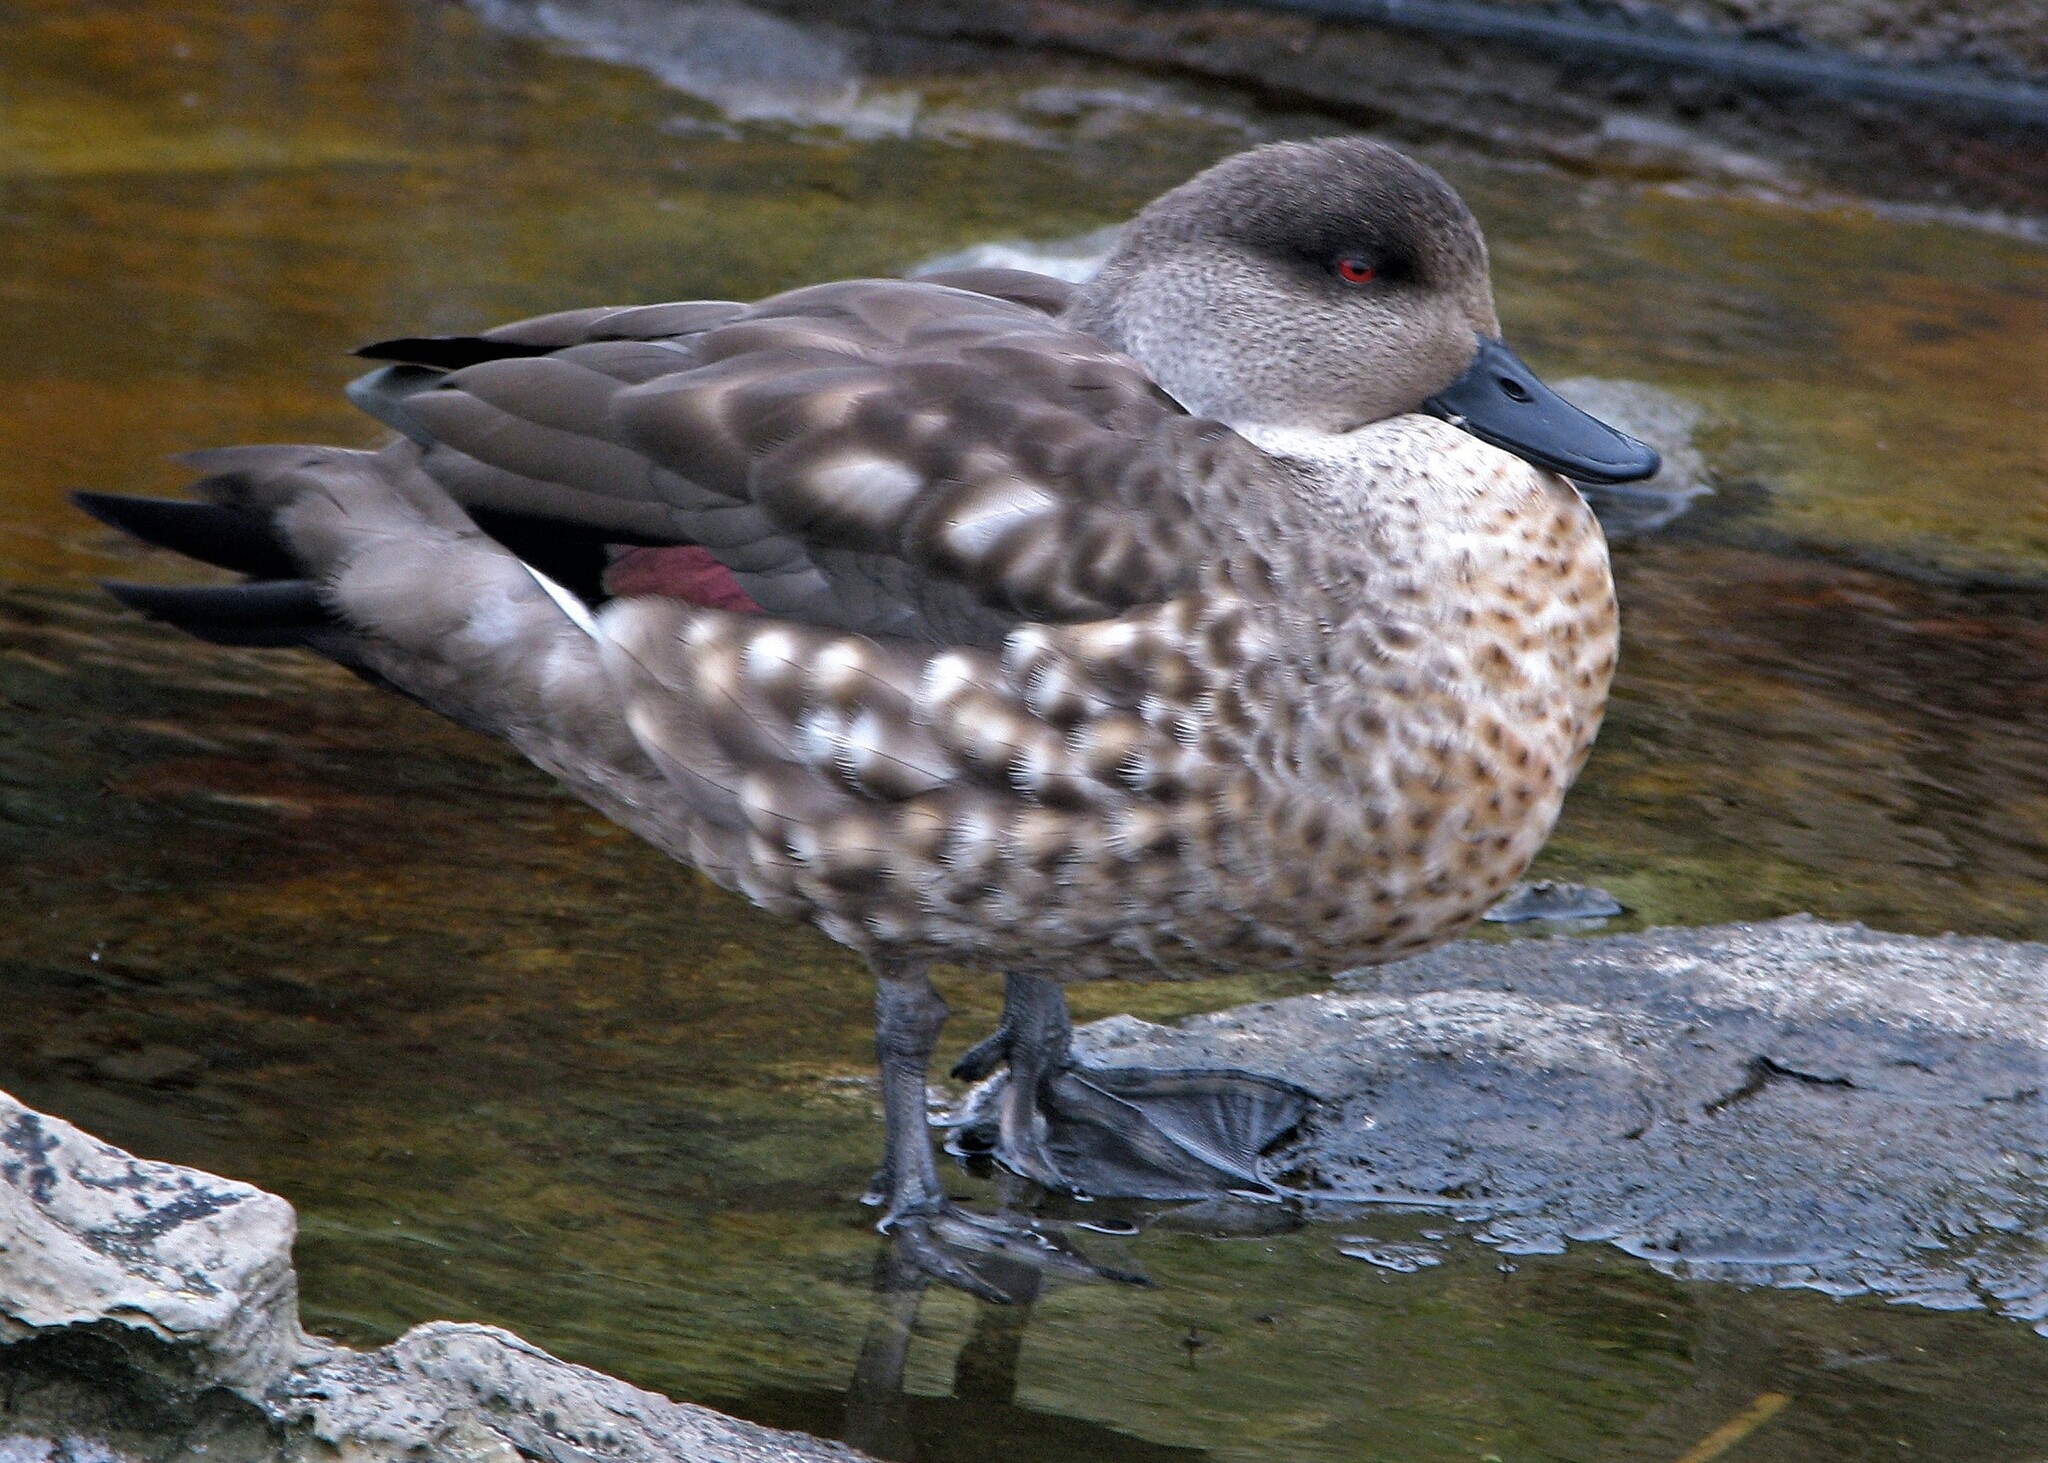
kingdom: Animalia
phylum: Chordata
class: Aves
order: Anseriformes
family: Anatidae
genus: Lophonetta
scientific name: Lophonetta specularioides
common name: Crested duck
